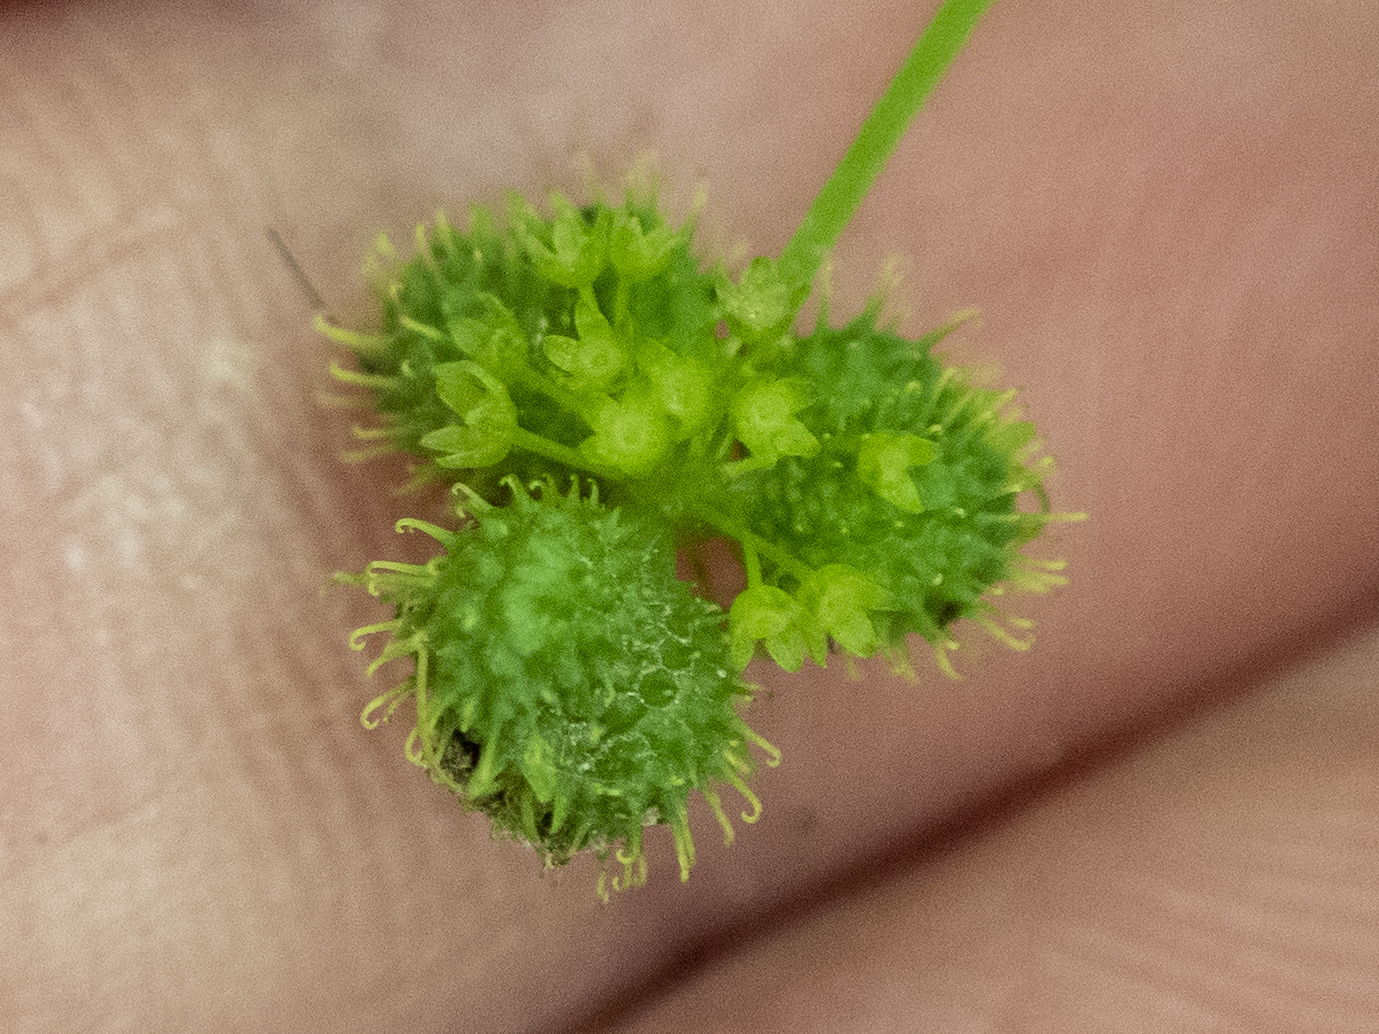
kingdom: Plantae
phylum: Tracheophyta
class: Magnoliopsida
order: Apiales
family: Apiaceae
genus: Sanicula
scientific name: Sanicula odorata
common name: Cluster sanicle
